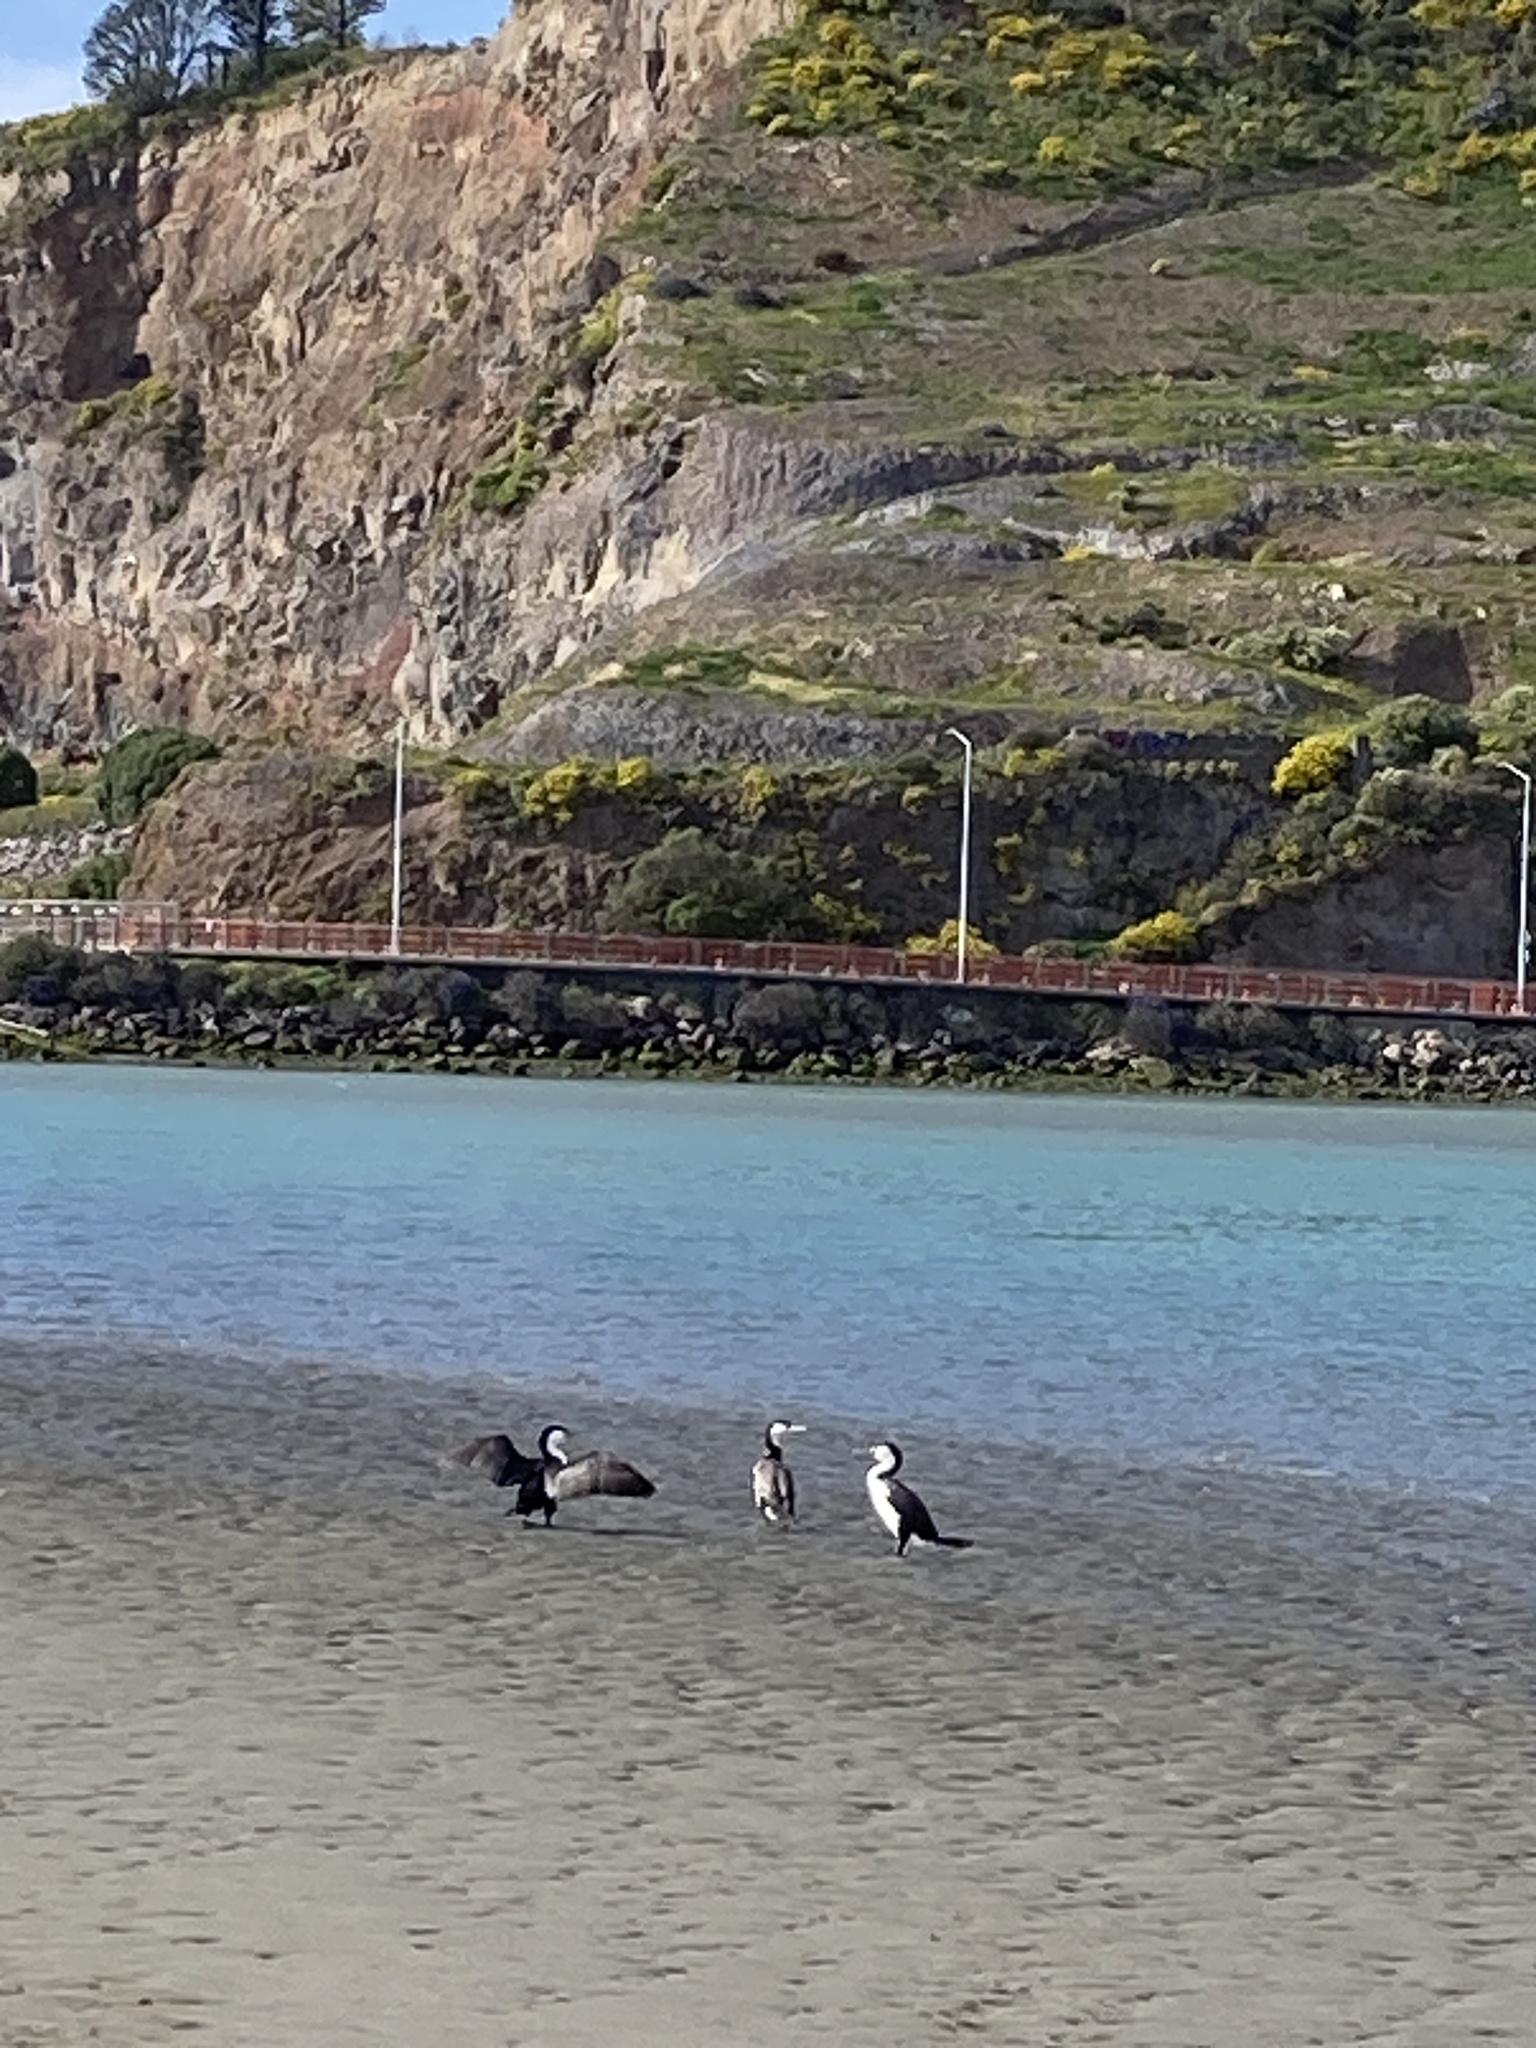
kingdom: Animalia
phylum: Chordata
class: Aves
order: Suliformes
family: Phalacrocoracidae
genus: Phalacrocorax
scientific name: Phalacrocorax varius
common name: Pied cormorant
